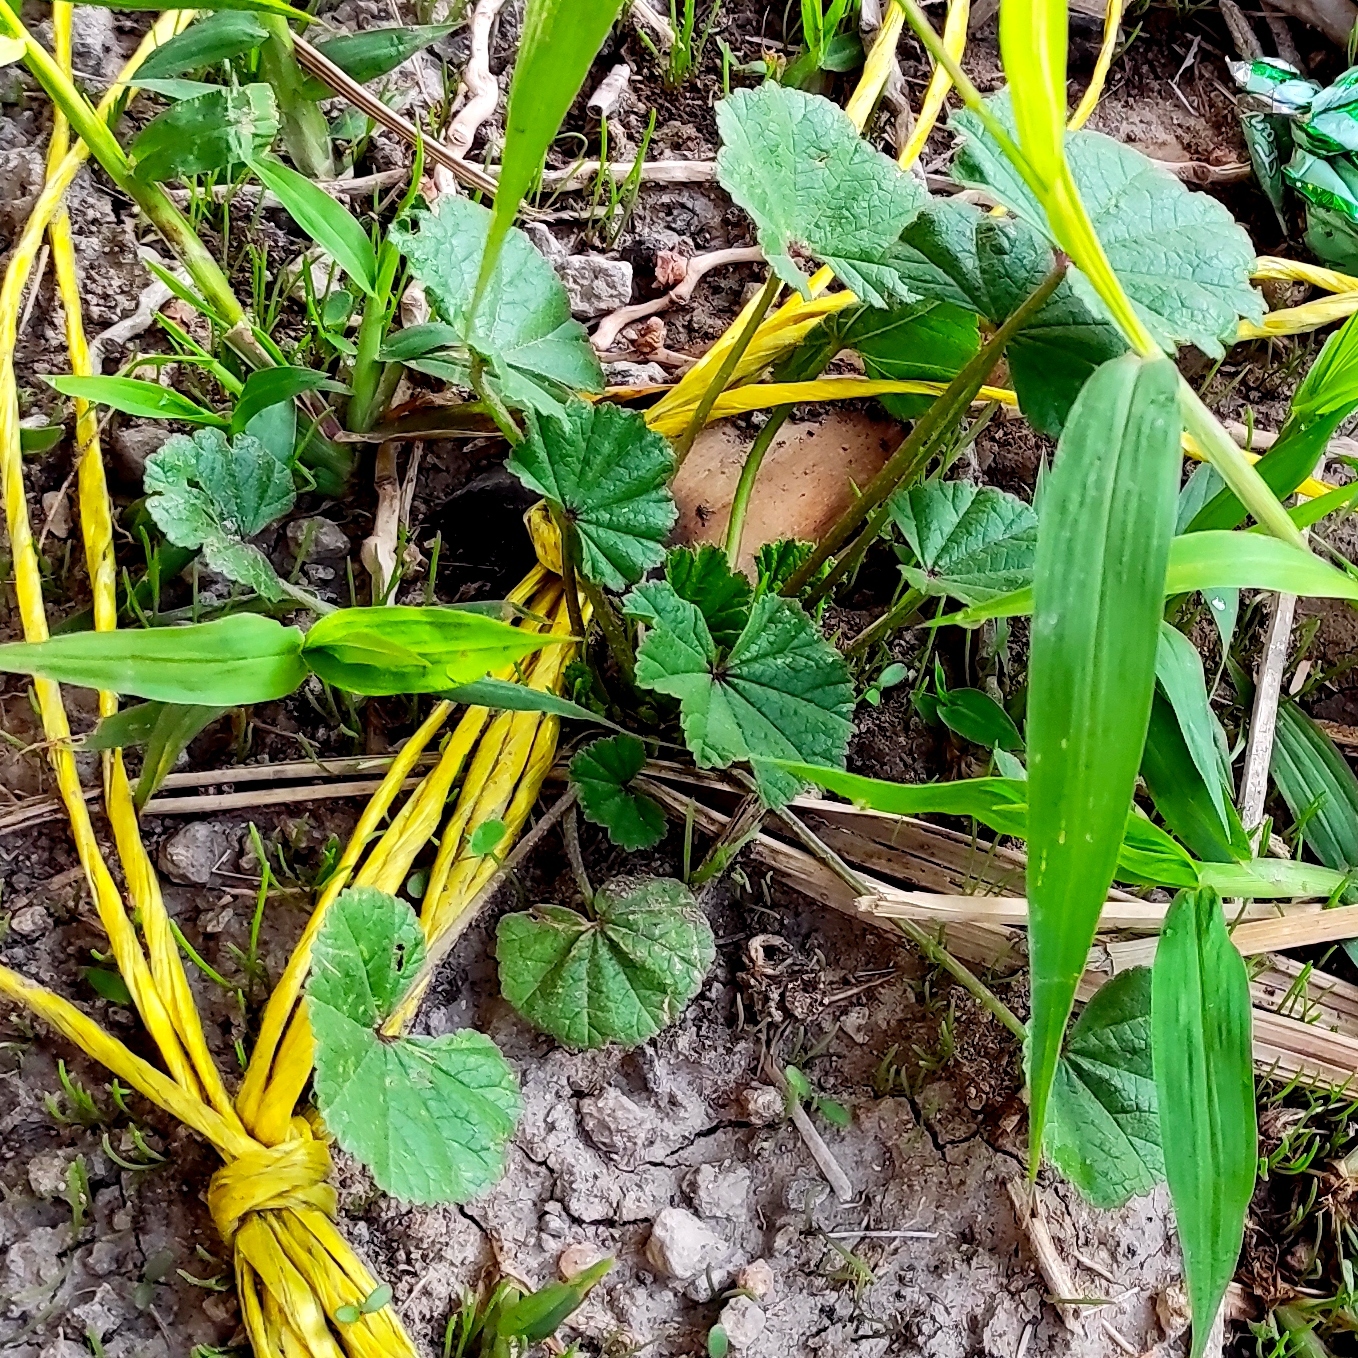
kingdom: Plantae
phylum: Tracheophyta
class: Magnoliopsida
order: Malvales
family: Malvaceae
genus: Malva
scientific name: Malva parviflora
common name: Least mallow
